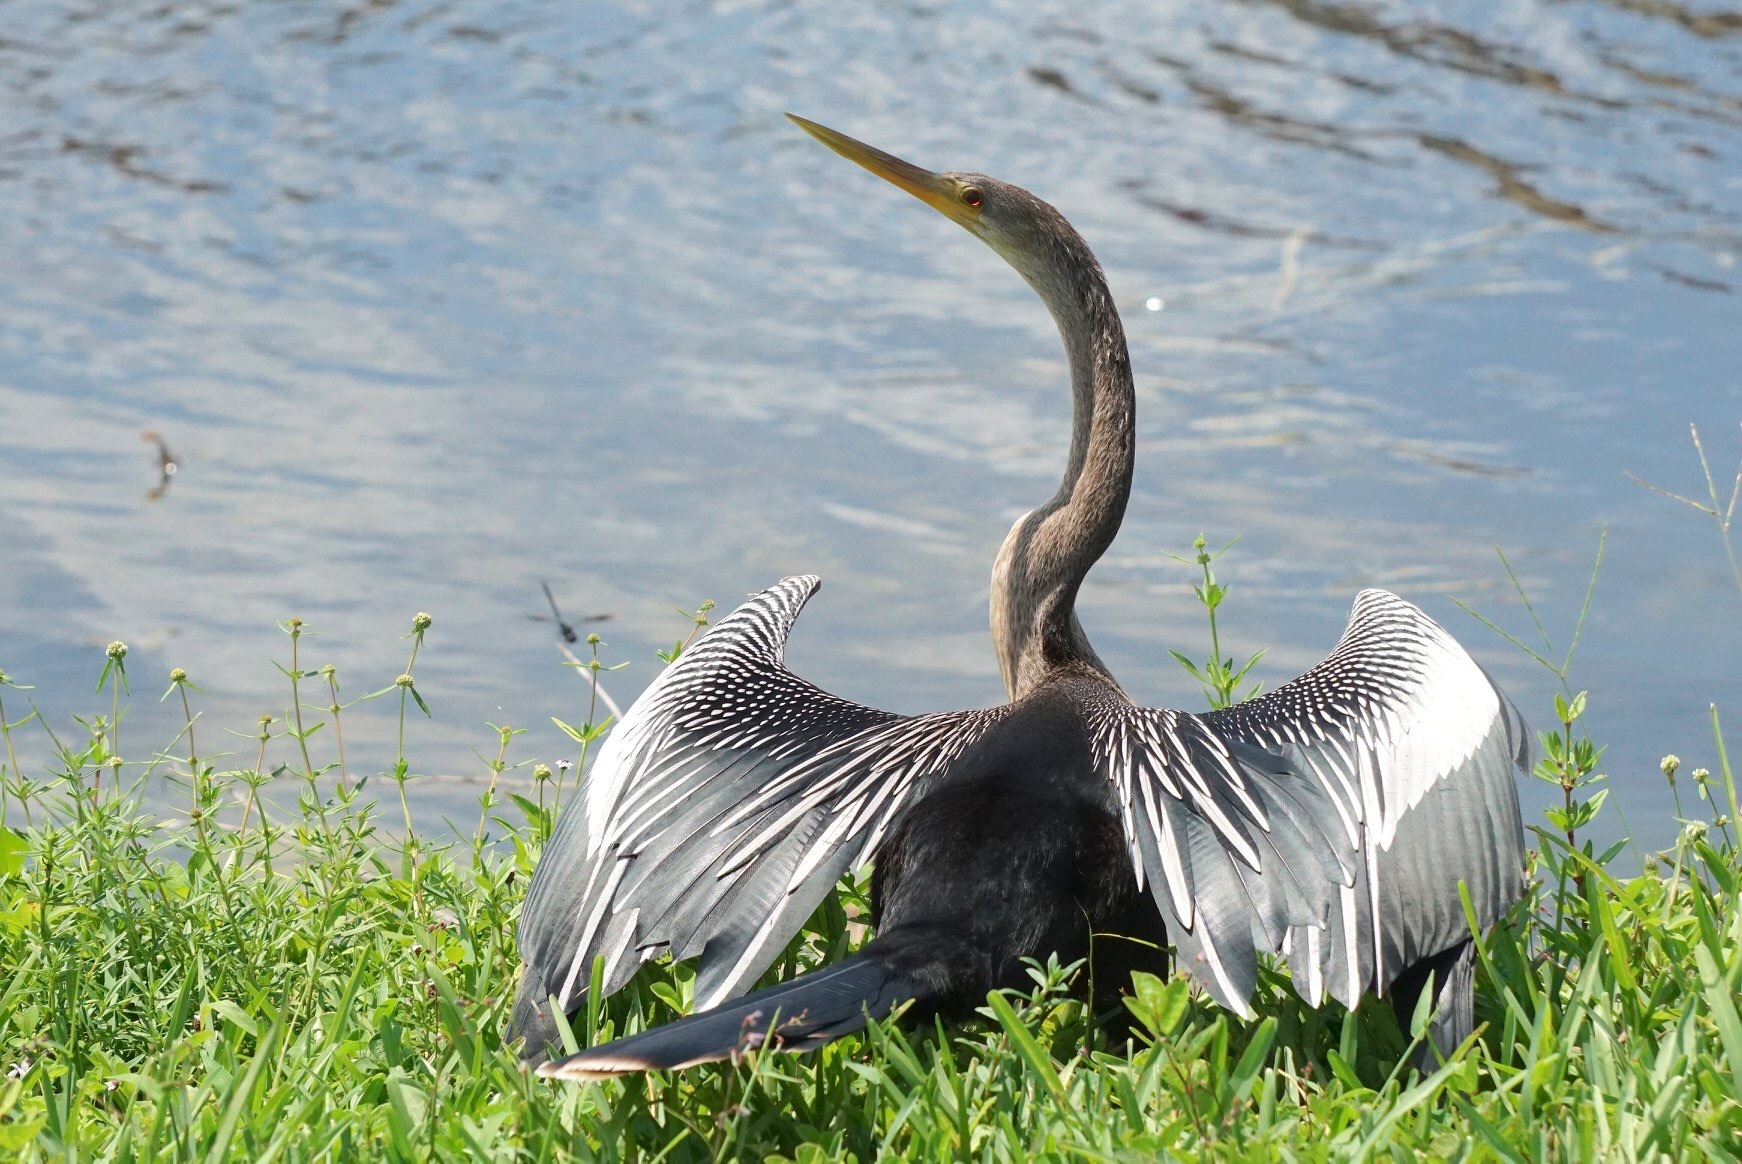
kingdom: Animalia
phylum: Chordata
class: Aves
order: Suliformes
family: Anhingidae
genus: Anhinga
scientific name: Anhinga anhinga
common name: Anhinga
